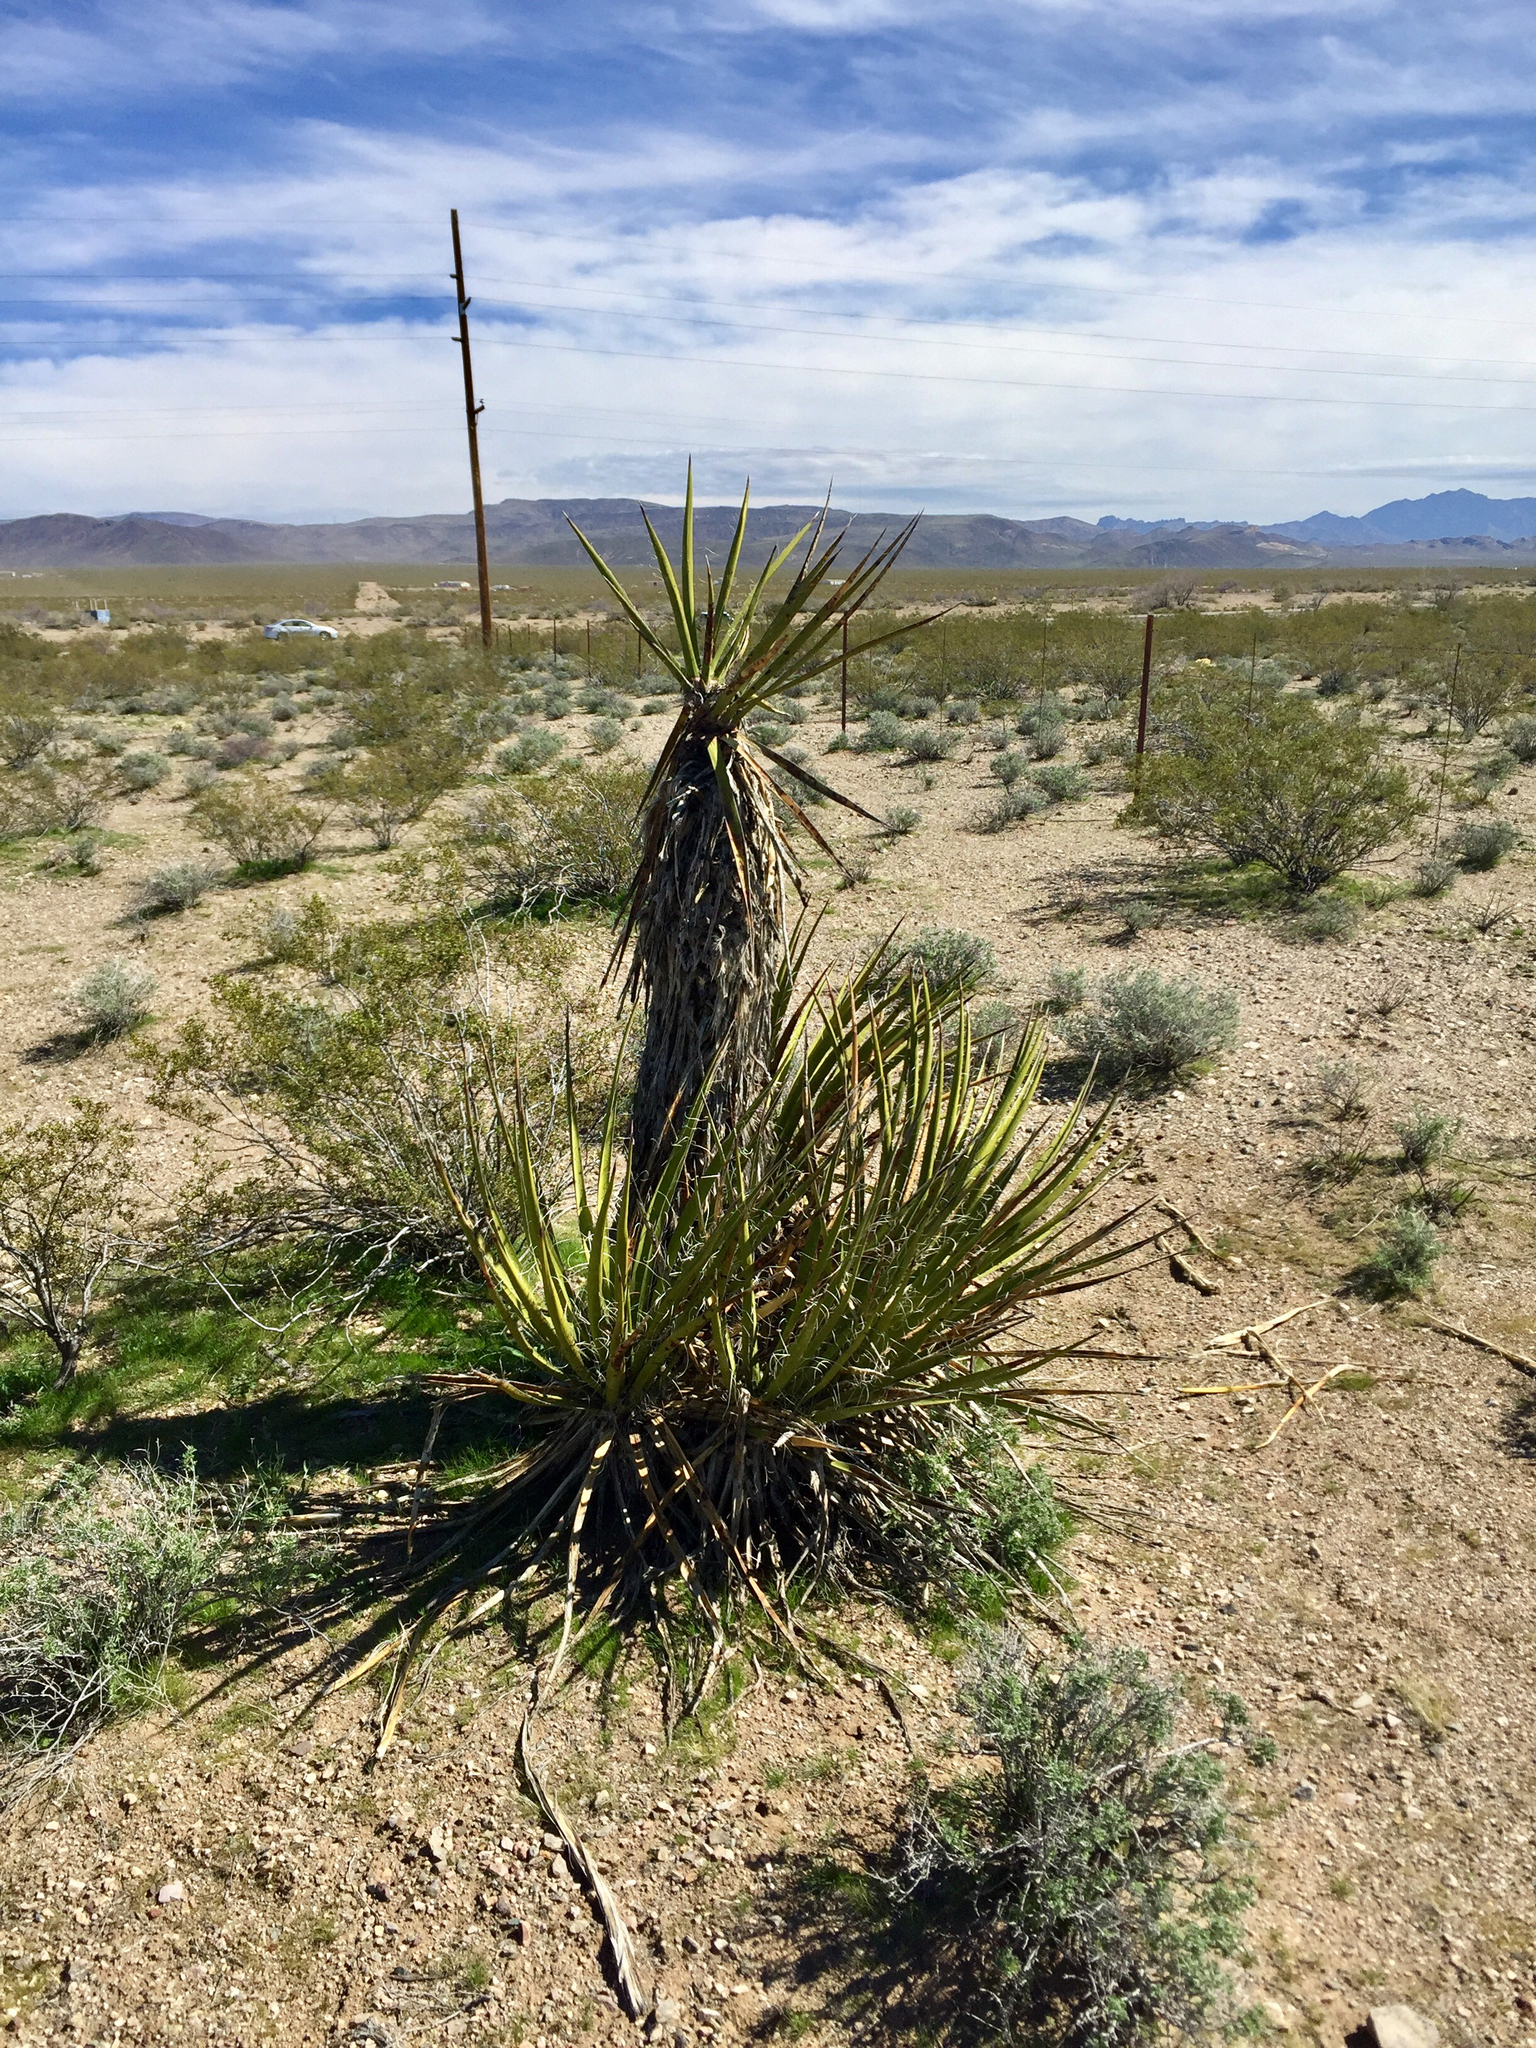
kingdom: Plantae
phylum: Tracheophyta
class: Liliopsida
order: Asparagales
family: Asparagaceae
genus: Yucca
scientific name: Yucca schidigera
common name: Mojave yucca
